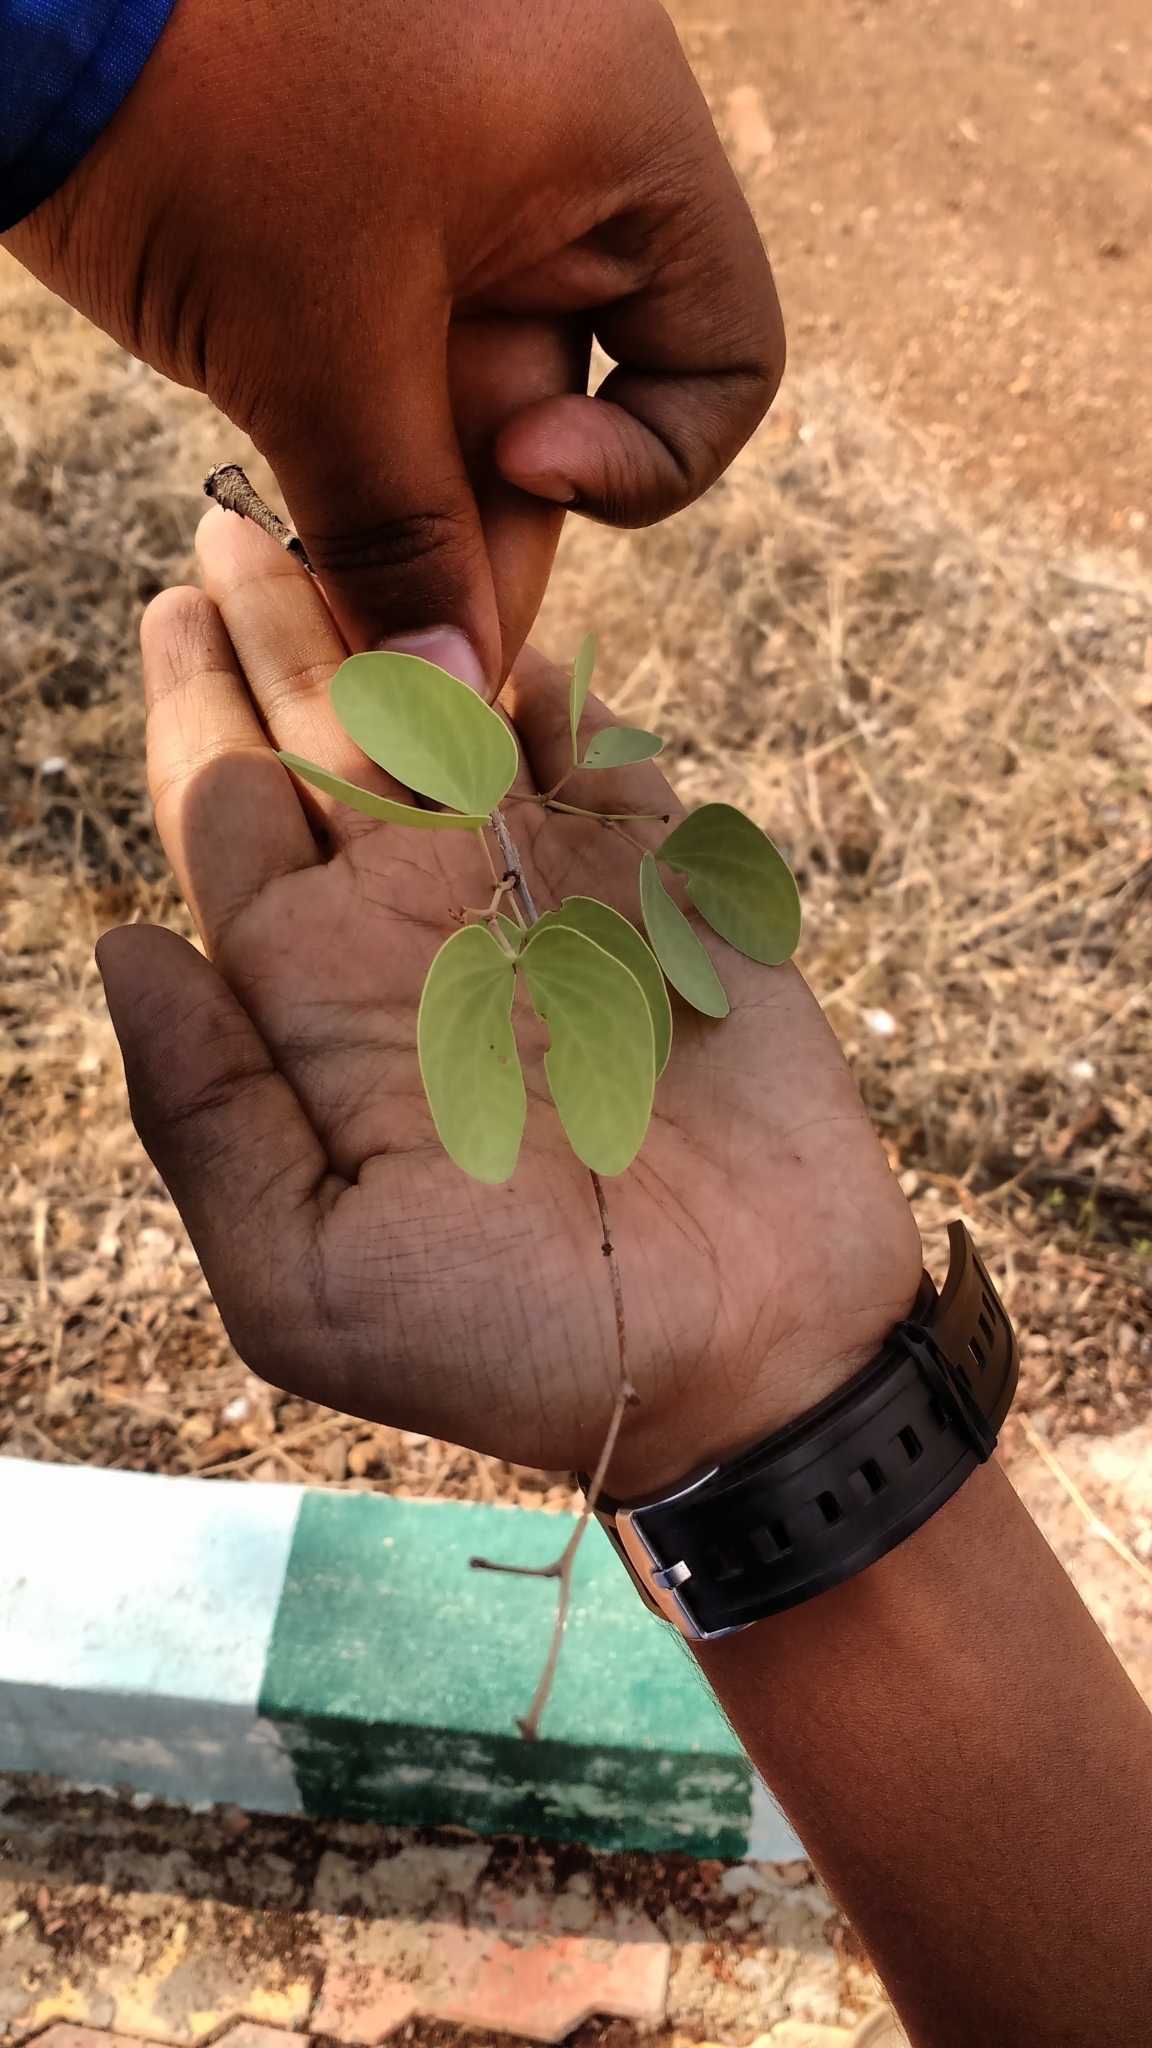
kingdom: Plantae
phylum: Tracheophyta
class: Magnoliopsida
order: Fabales
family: Fabaceae
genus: Hardwickia
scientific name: Hardwickia binata
